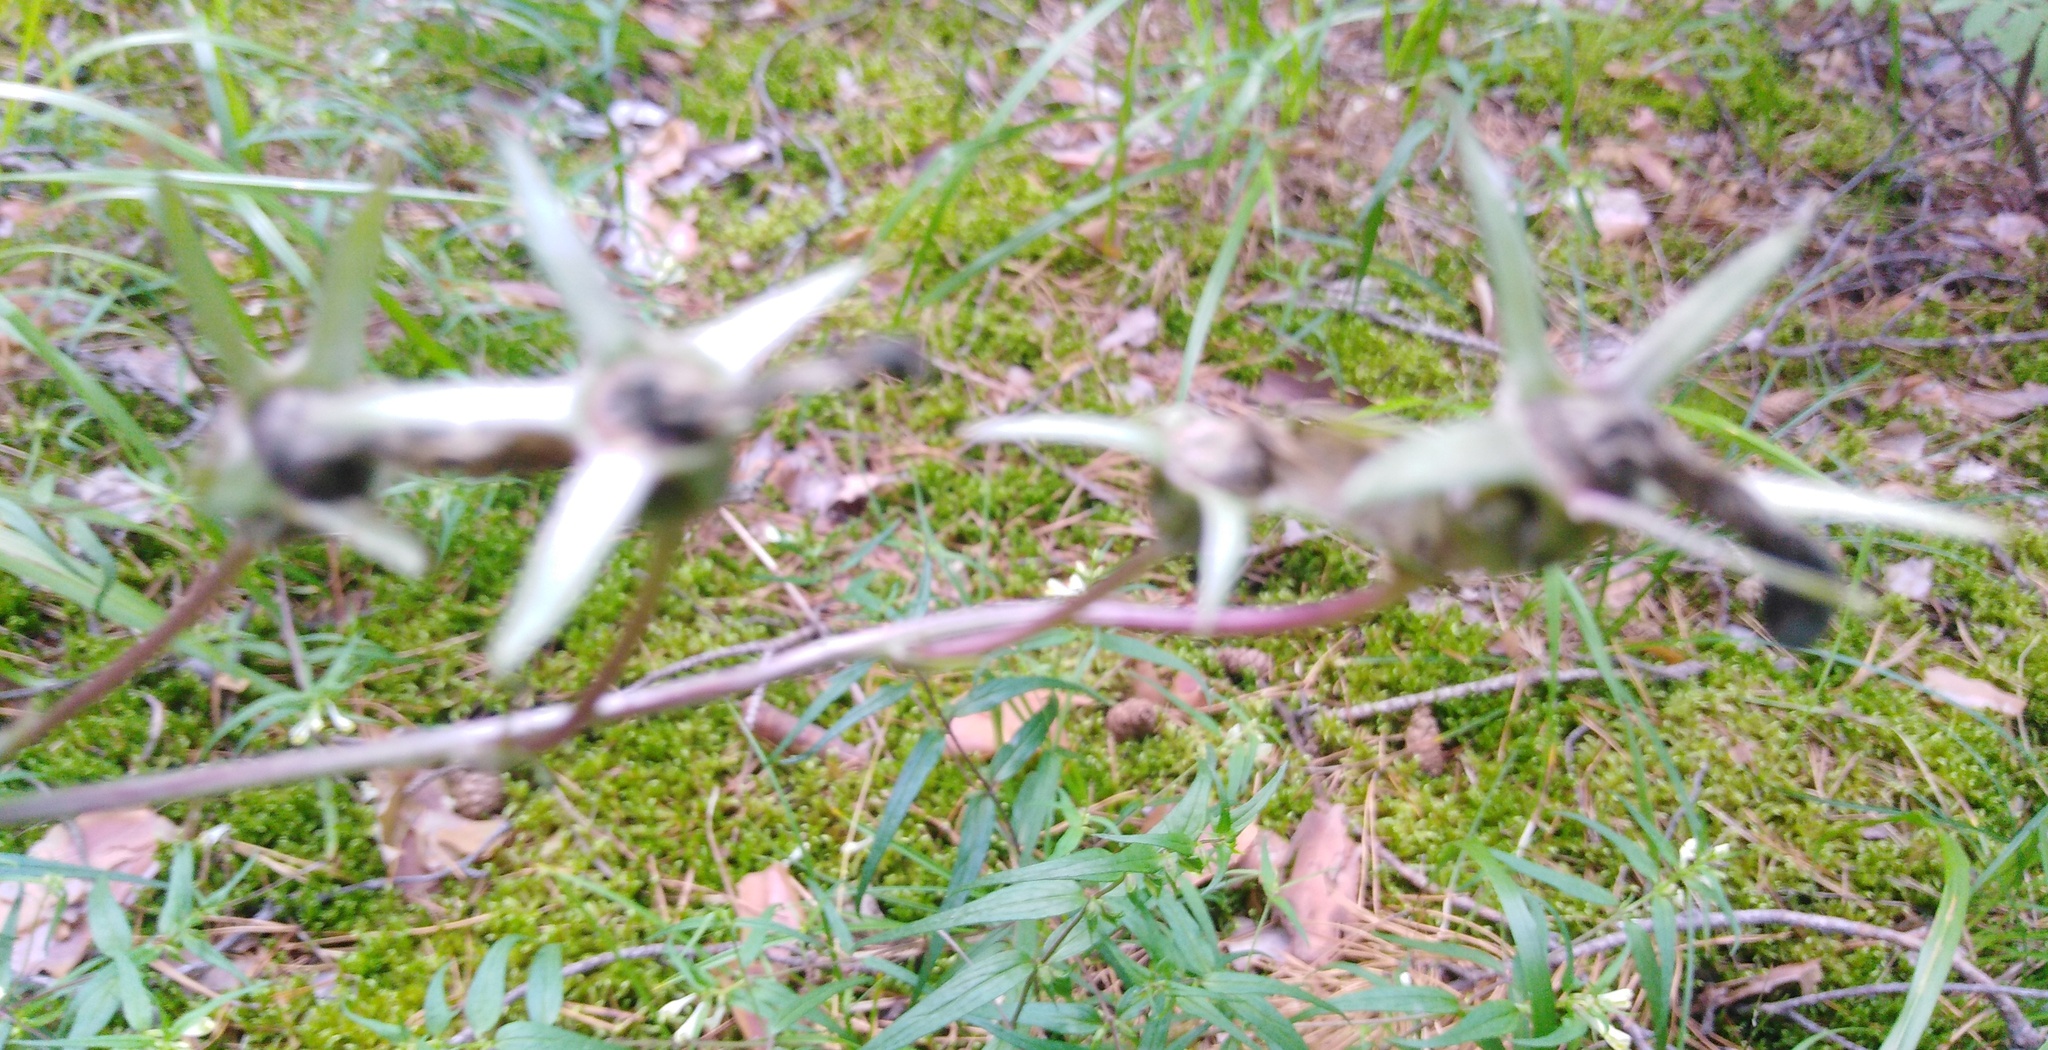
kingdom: Plantae
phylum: Tracheophyta
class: Magnoliopsida
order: Asterales
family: Campanulaceae
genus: Campanula
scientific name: Campanula persicifolia
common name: Peach-leaved bellflower
